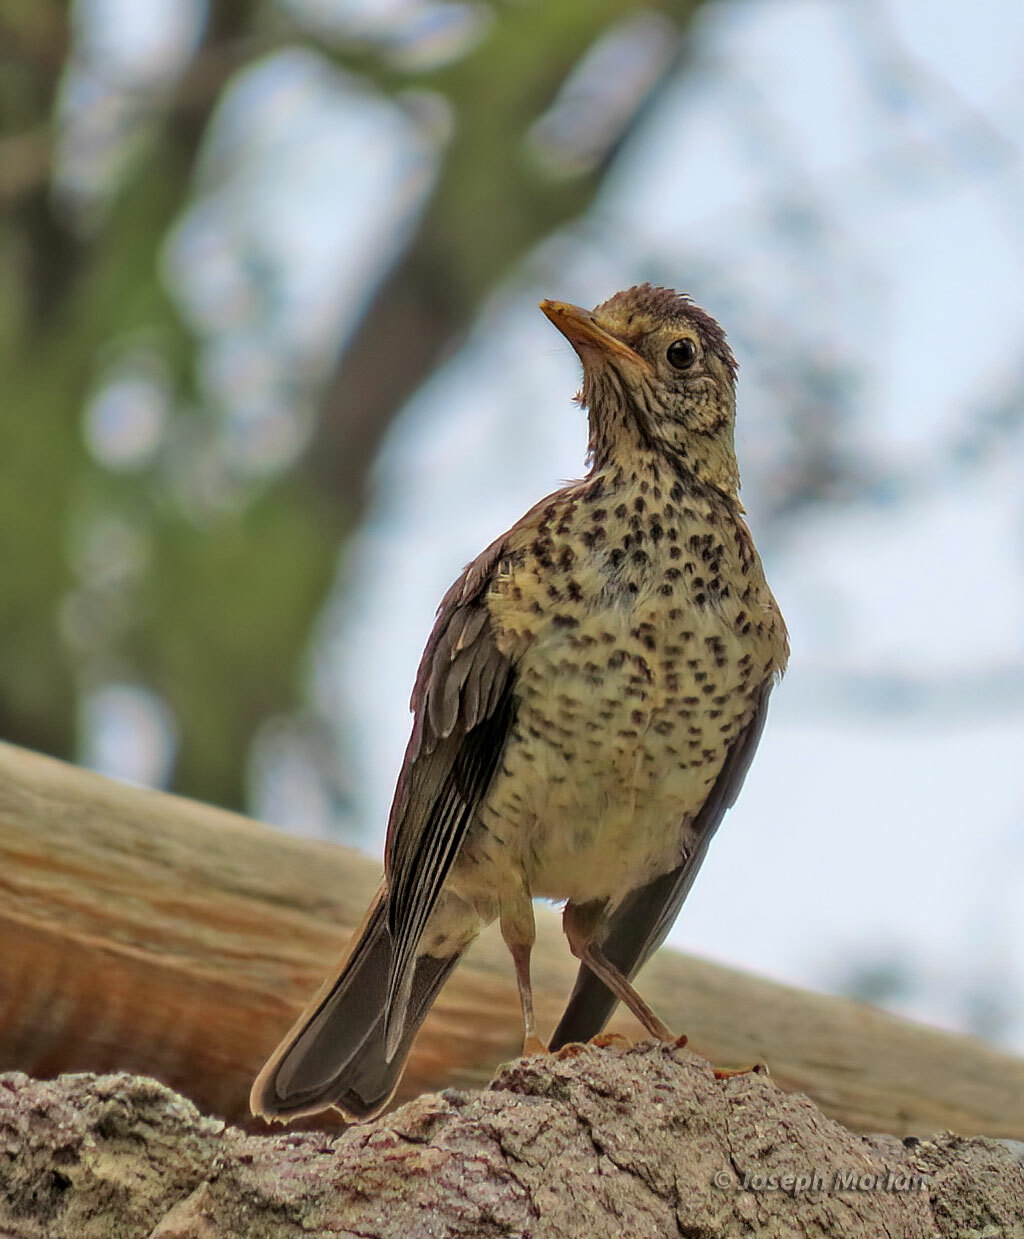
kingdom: Animalia
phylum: Chordata
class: Aves
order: Passeriformes
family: Turdidae
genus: Turdus
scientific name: Turdus falcklandii
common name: Austral thrush
